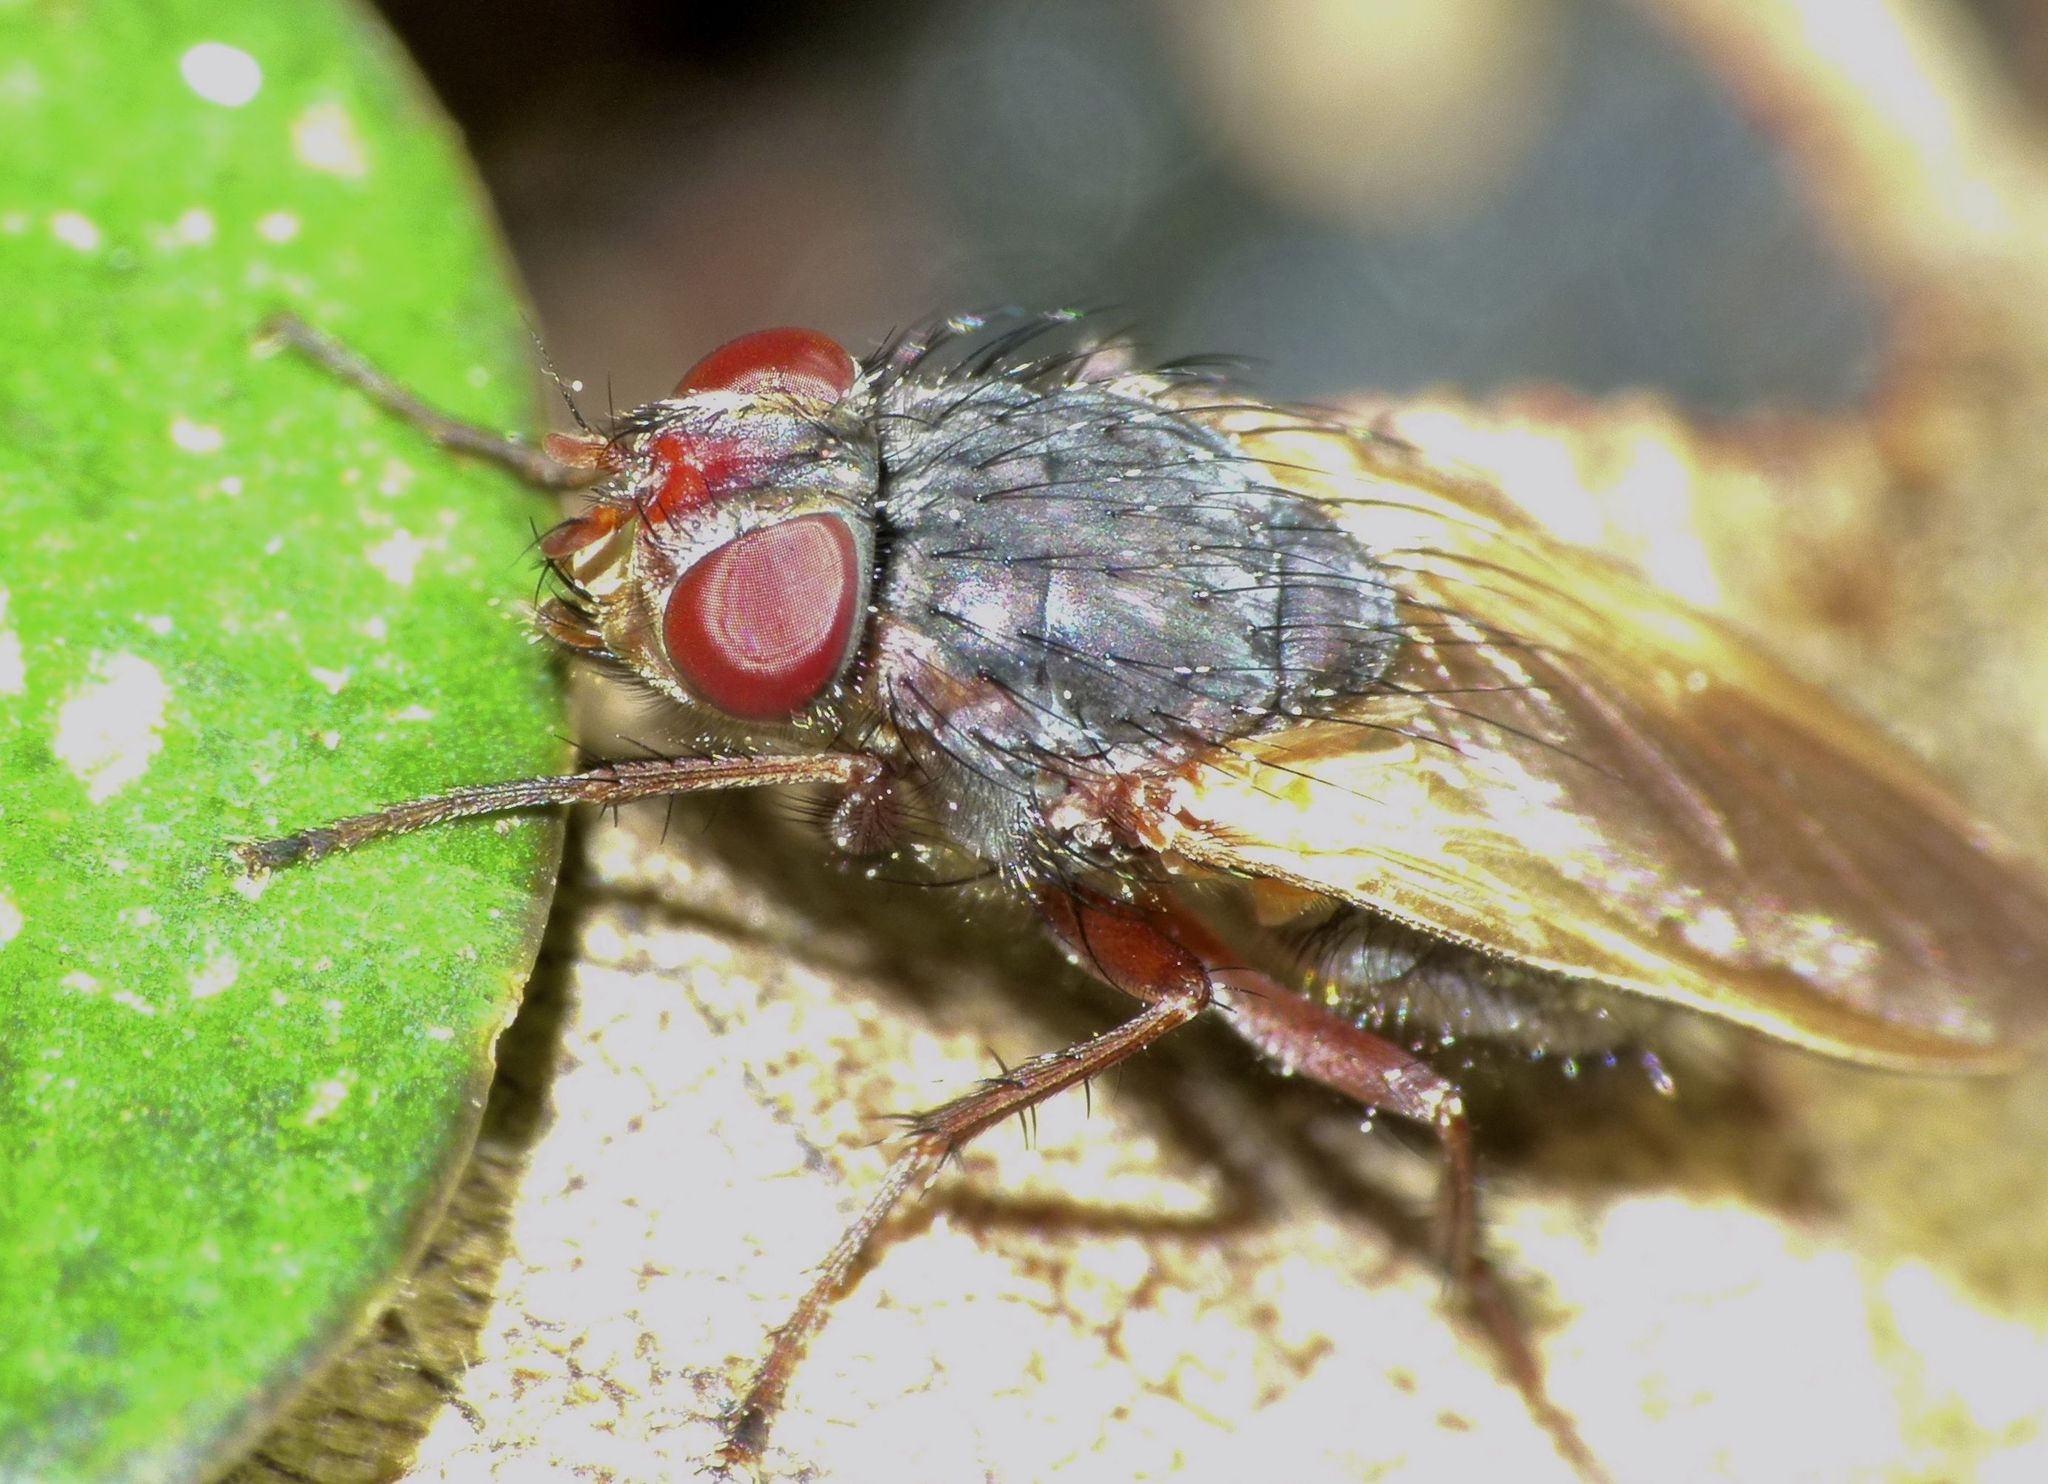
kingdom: Animalia
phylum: Arthropoda
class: Insecta
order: Diptera
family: Polleniidae
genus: Pollenia
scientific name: Pollenia uniseta
